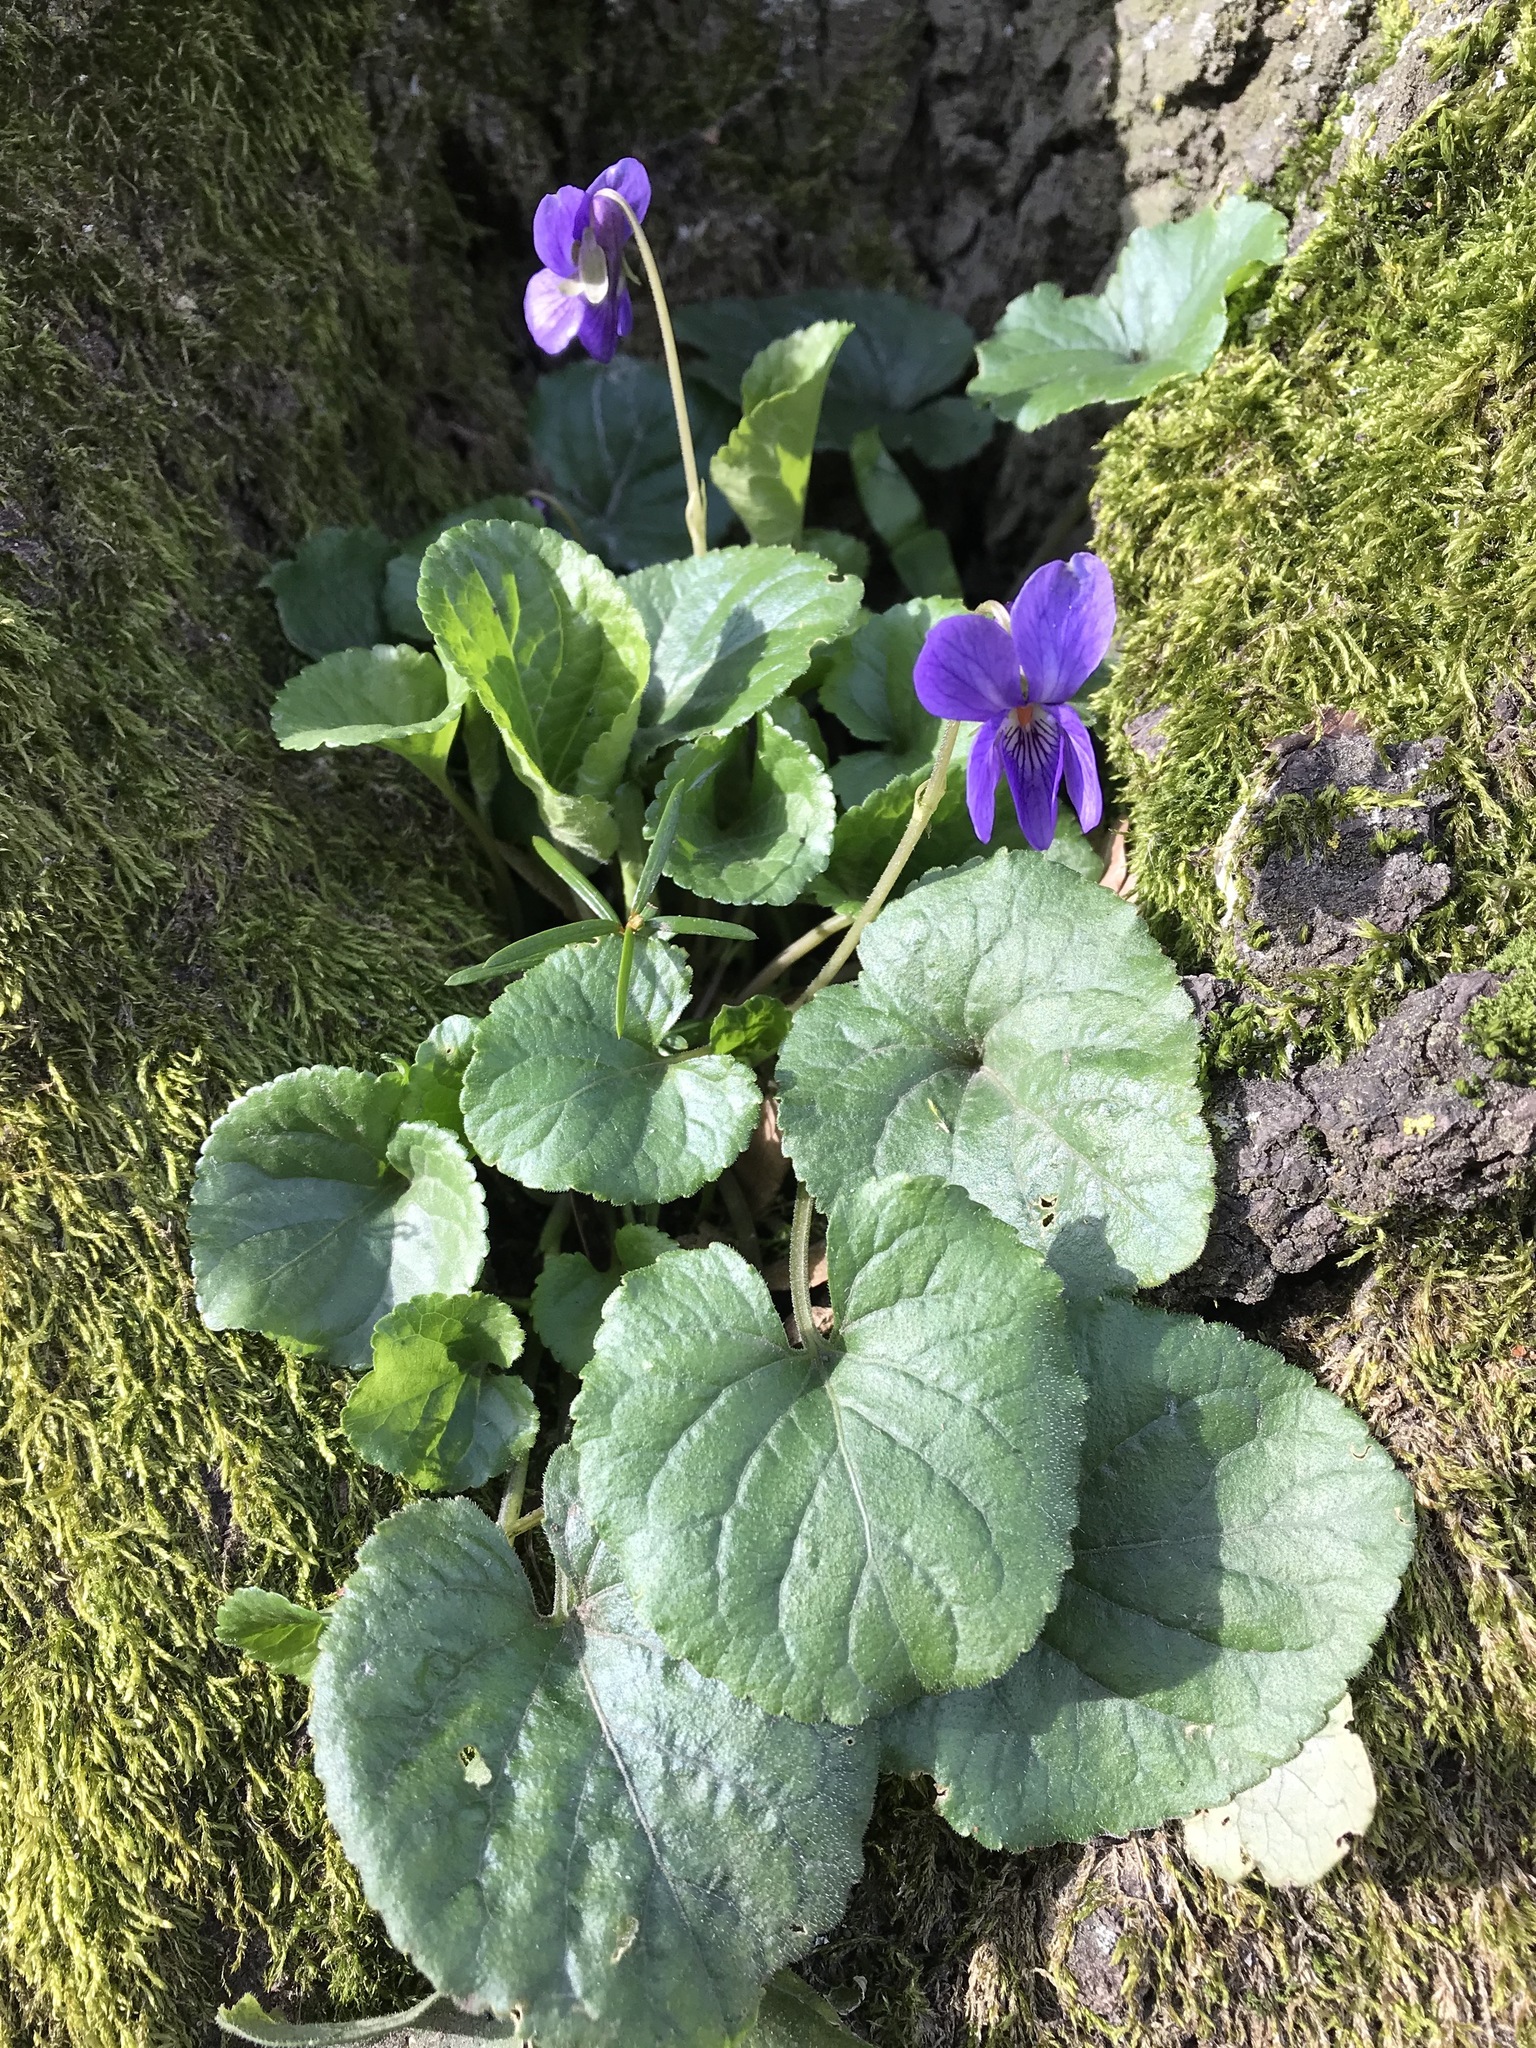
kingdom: Plantae
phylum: Tracheophyta
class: Magnoliopsida
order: Malpighiales
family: Violaceae
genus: Viola
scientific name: Viola odorata
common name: Sweet violet
